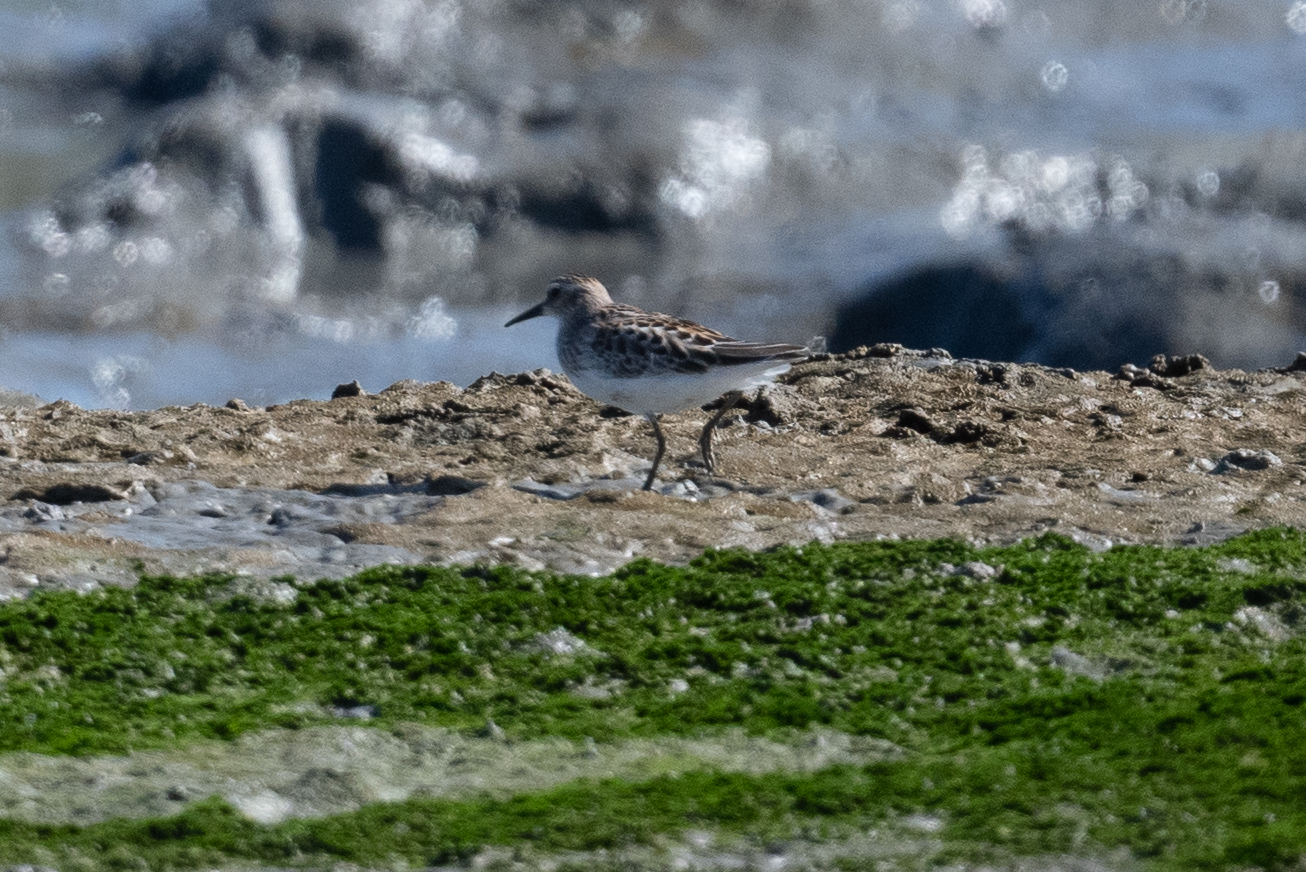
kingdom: Animalia
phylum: Chordata
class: Aves
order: Charadriiformes
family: Scolopacidae
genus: Calidris
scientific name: Calidris minutilla
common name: Least sandpiper
